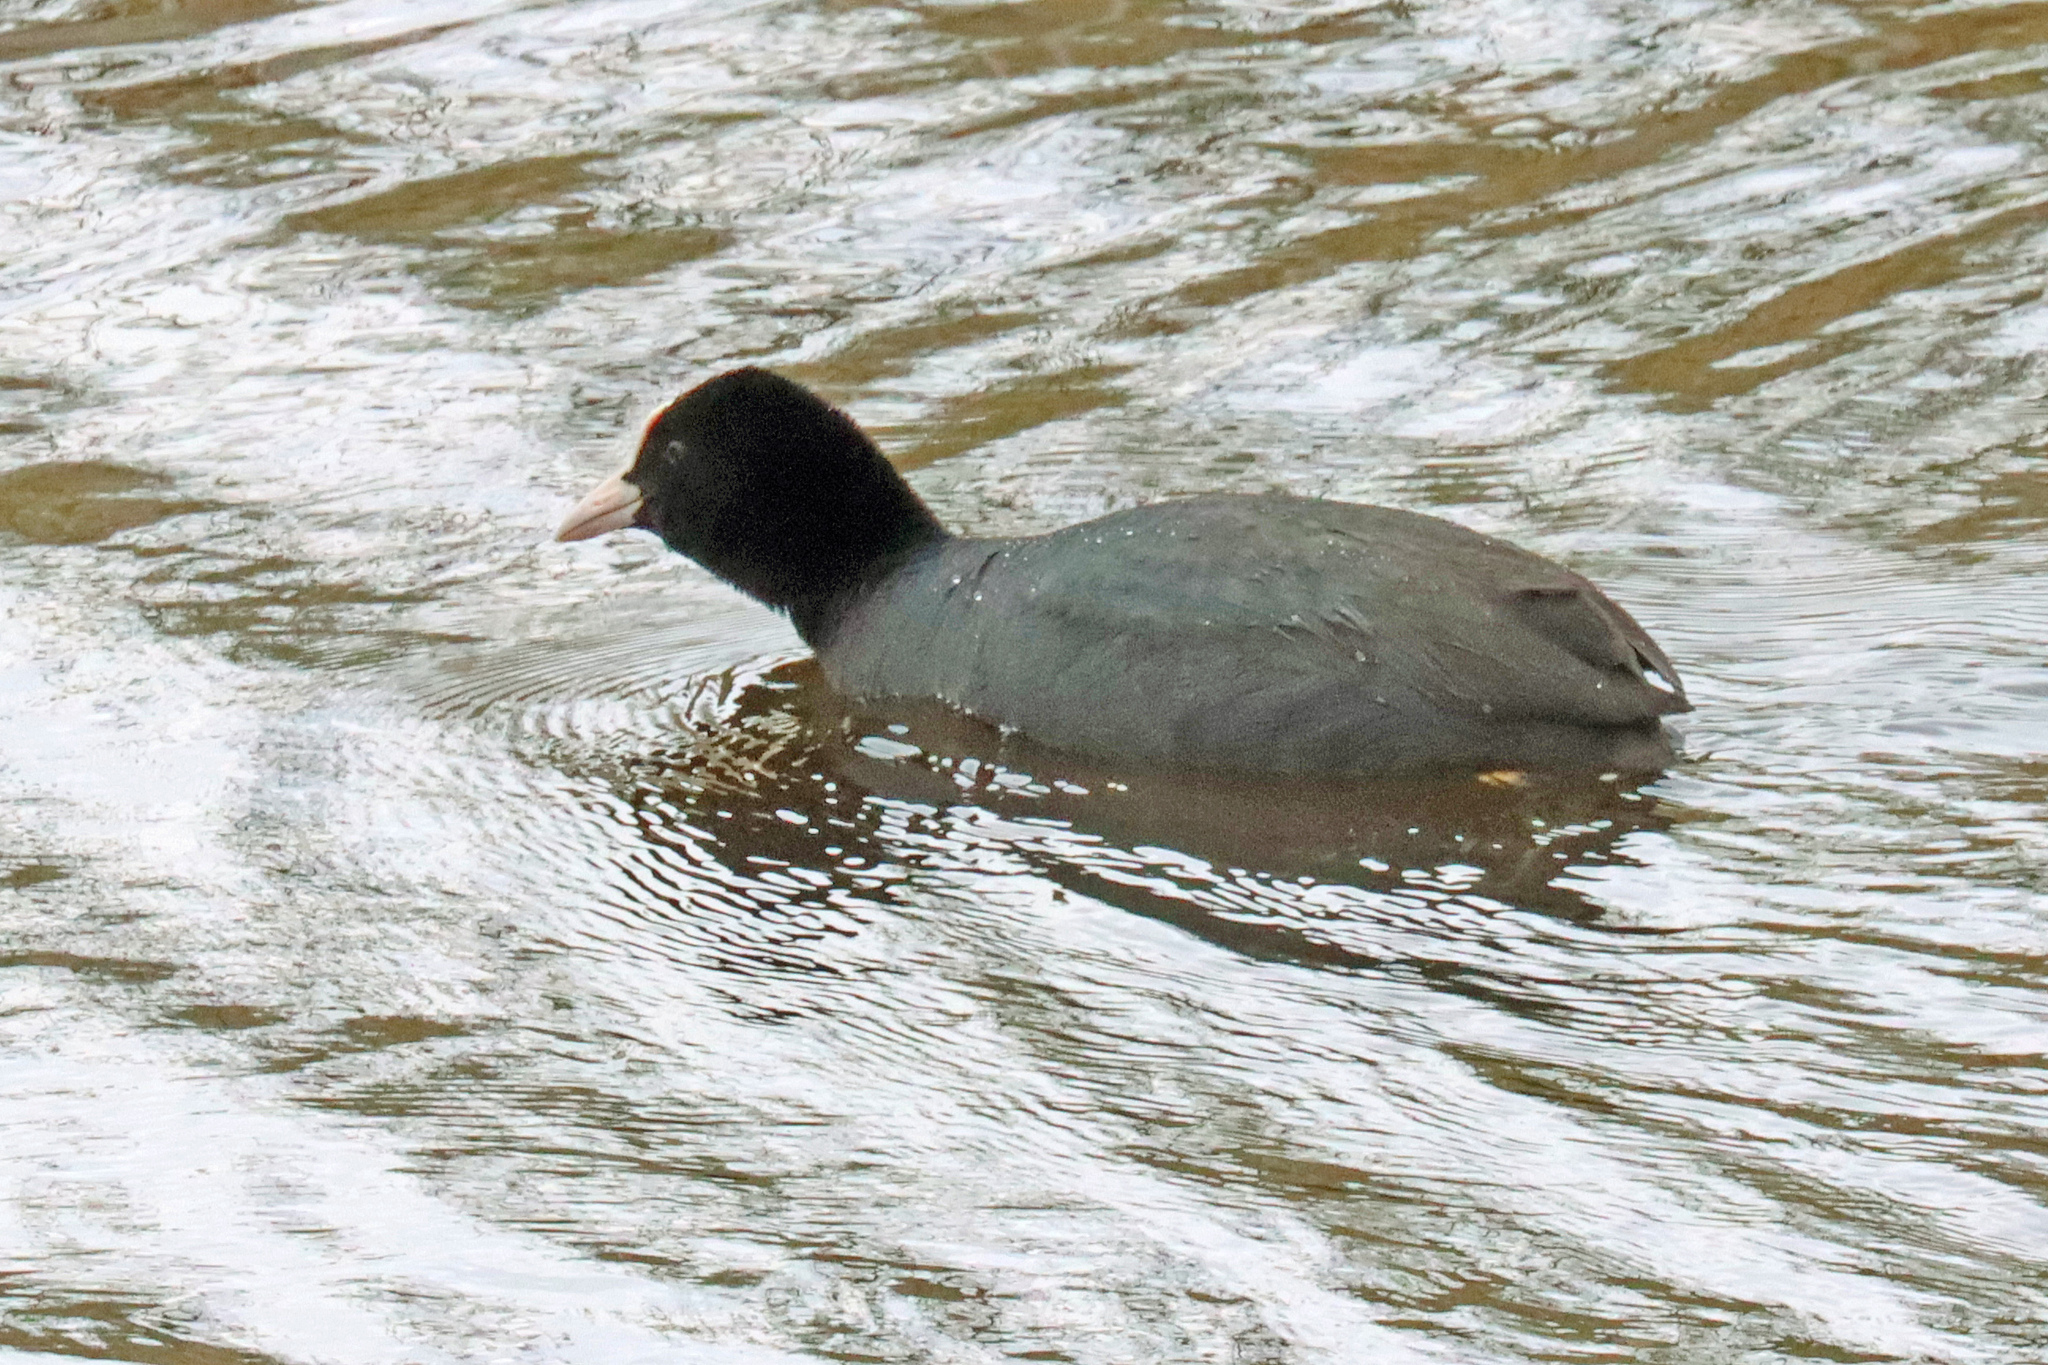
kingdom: Animalia
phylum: Chordata
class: Aves
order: Gruiformes
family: Rallidae
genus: Fulica
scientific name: Fulica atra
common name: Eurasian coot
